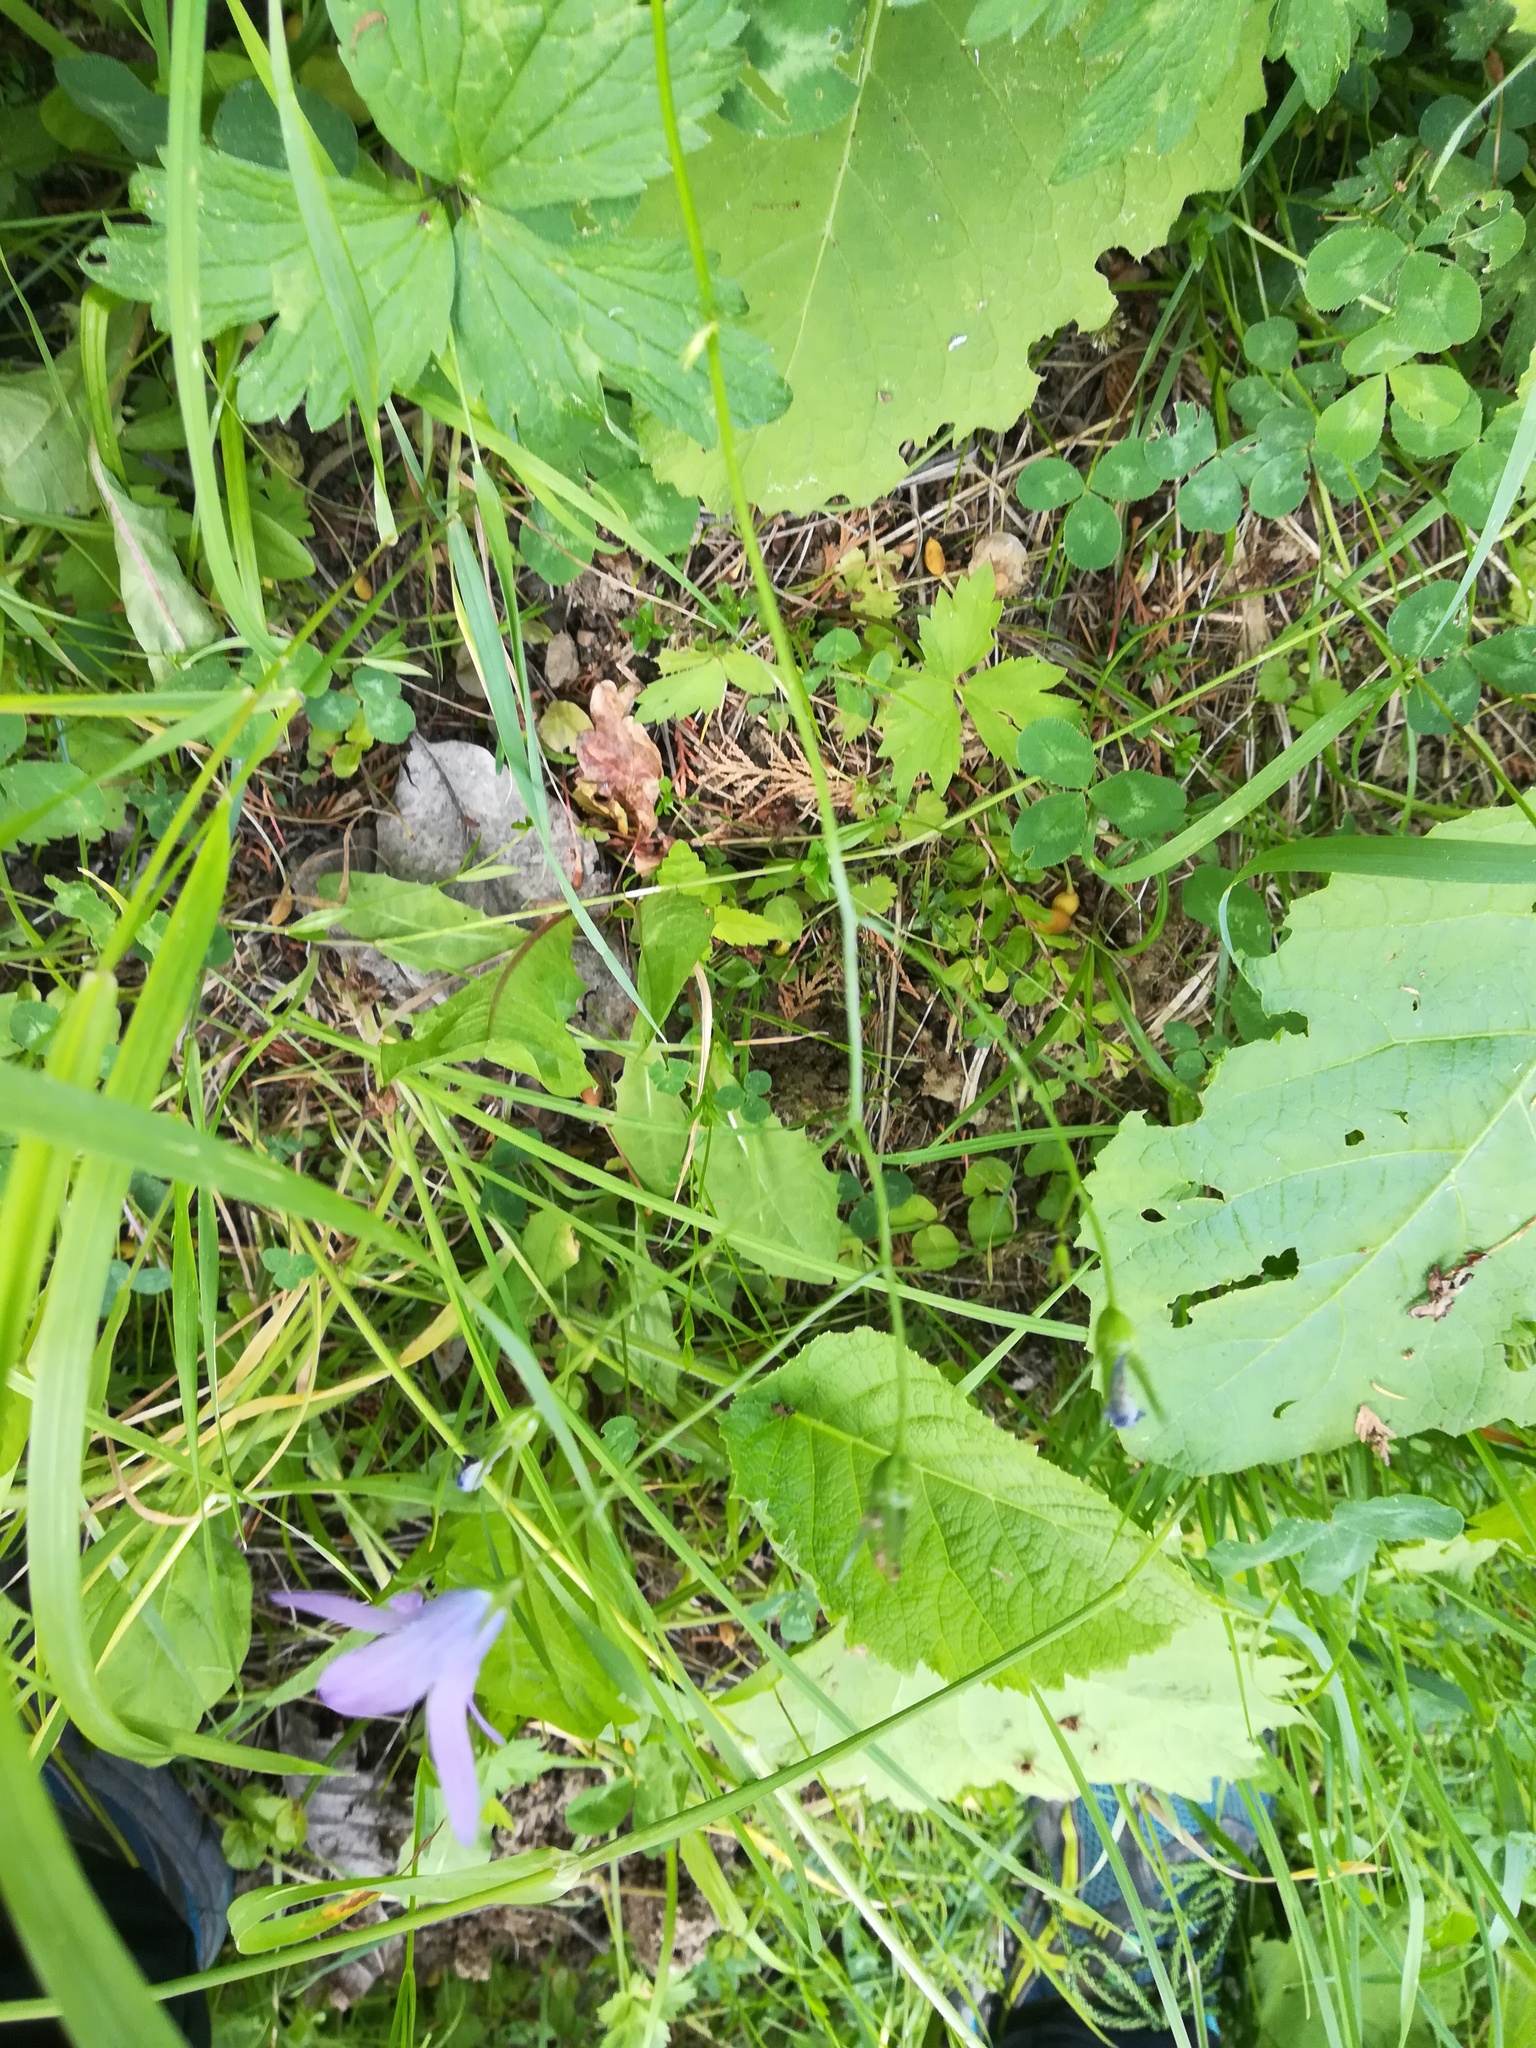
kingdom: Plantae
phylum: Tracheophyta
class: Magnoliopsida
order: Asterales
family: Campanulaceae
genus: Campanula
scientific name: Campanula patula
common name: Spreading bellflower
